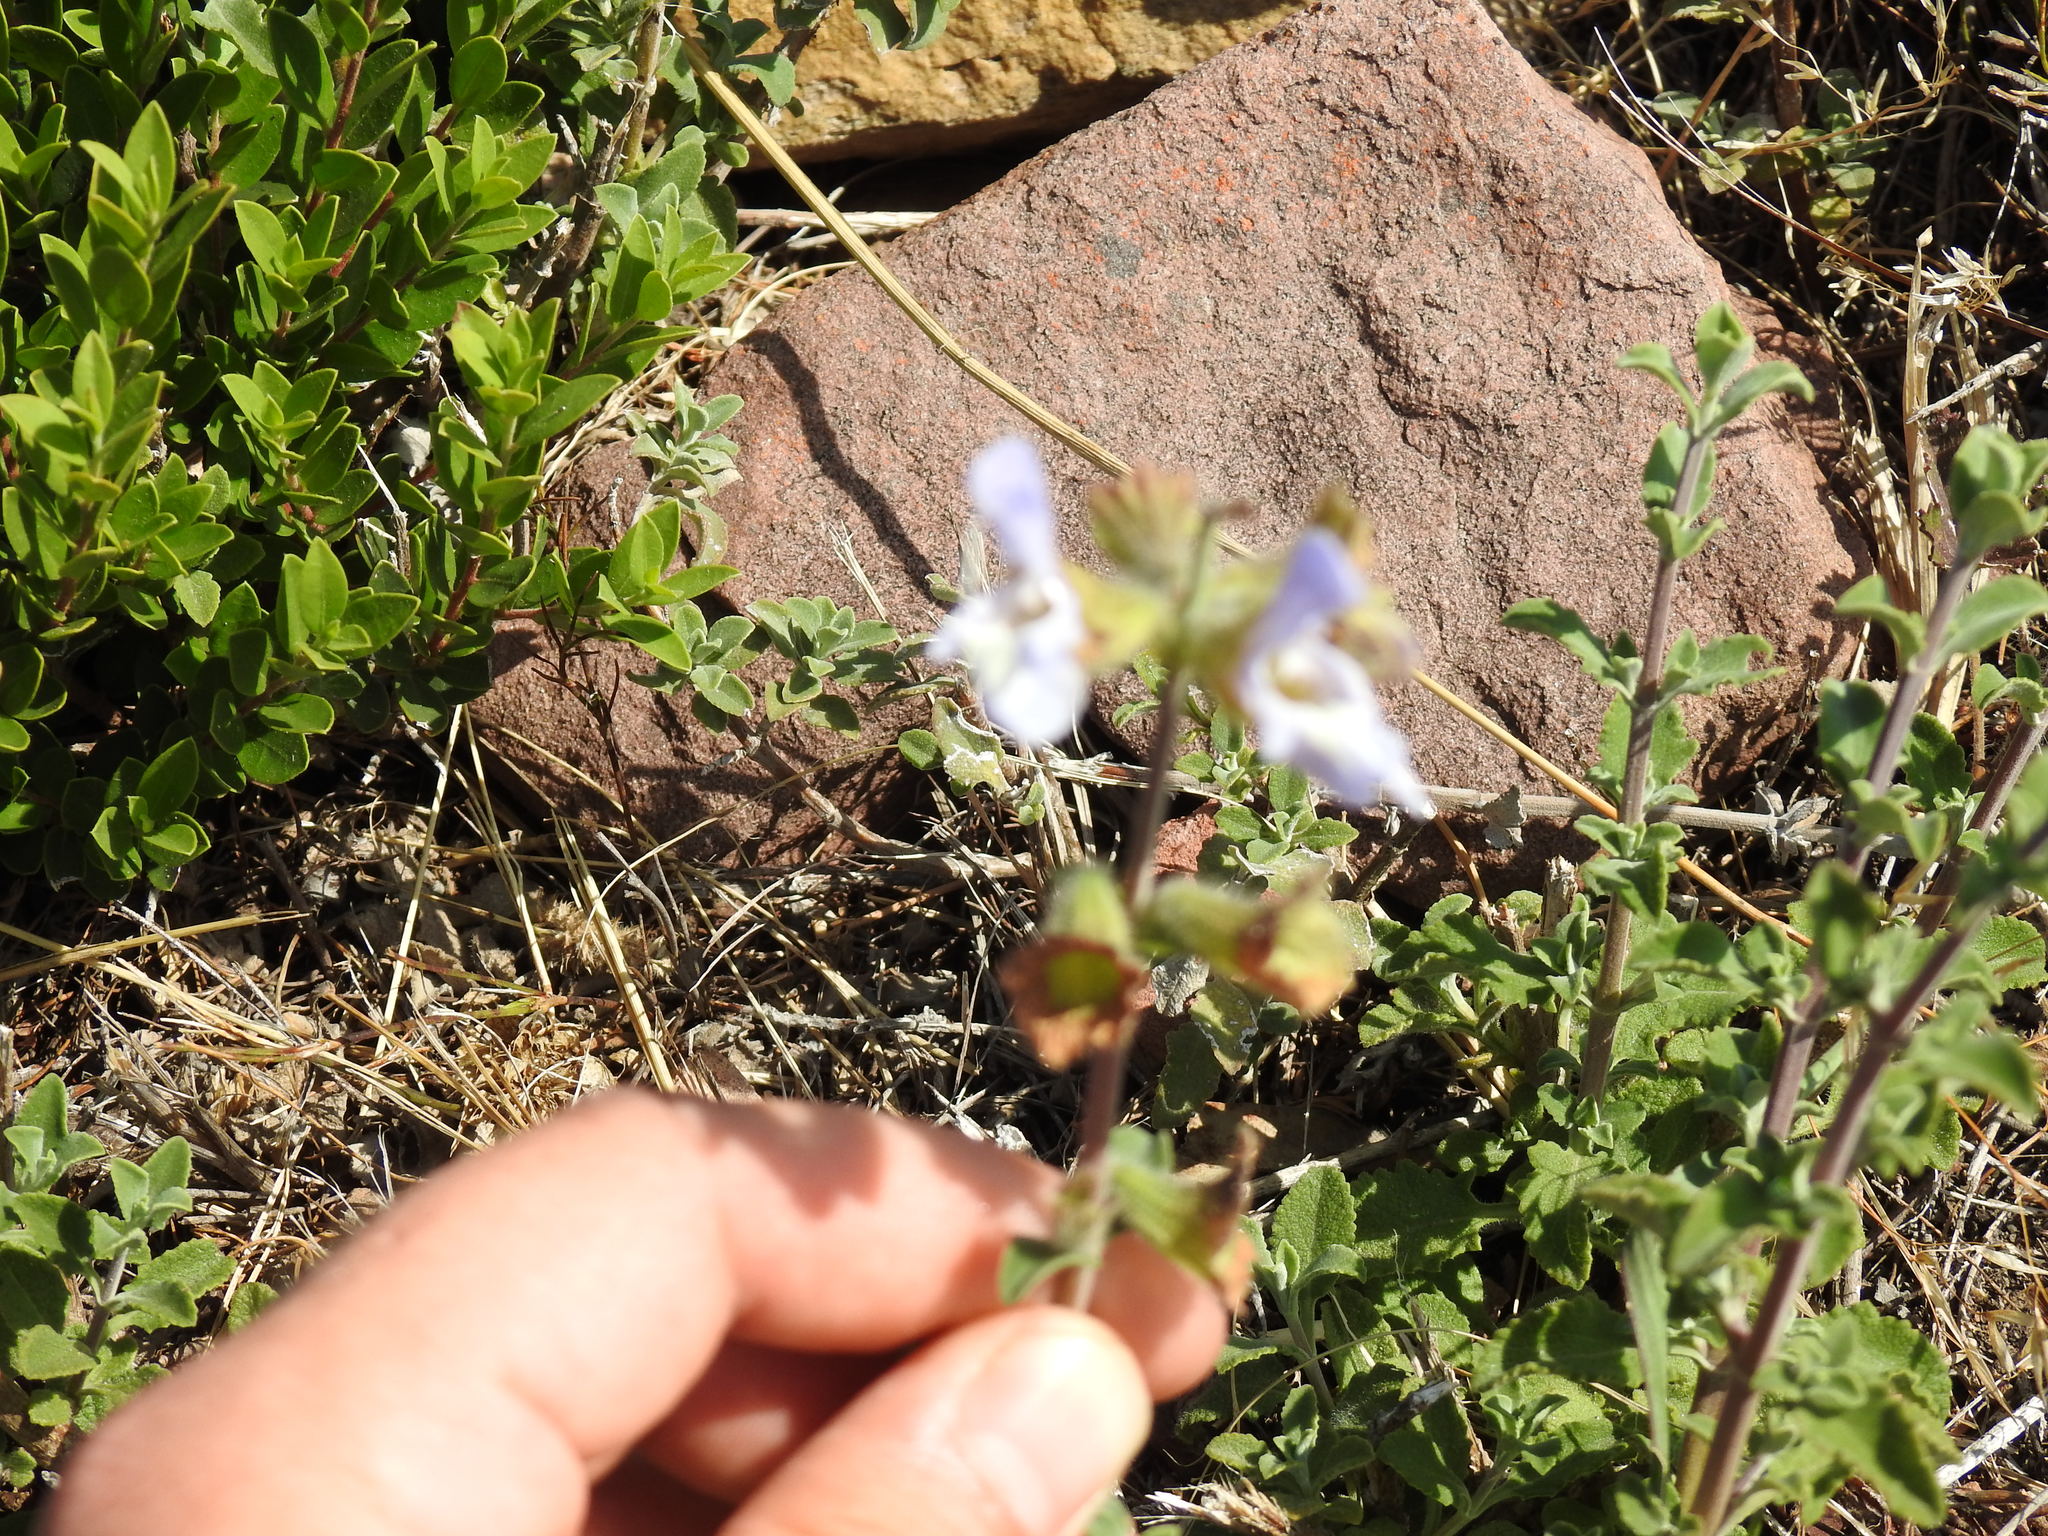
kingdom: Plantae
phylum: Tracheophyta
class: Magnoliopsida
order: Lamiales
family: Lamiaceae
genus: Salvia
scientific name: Salvia africana
